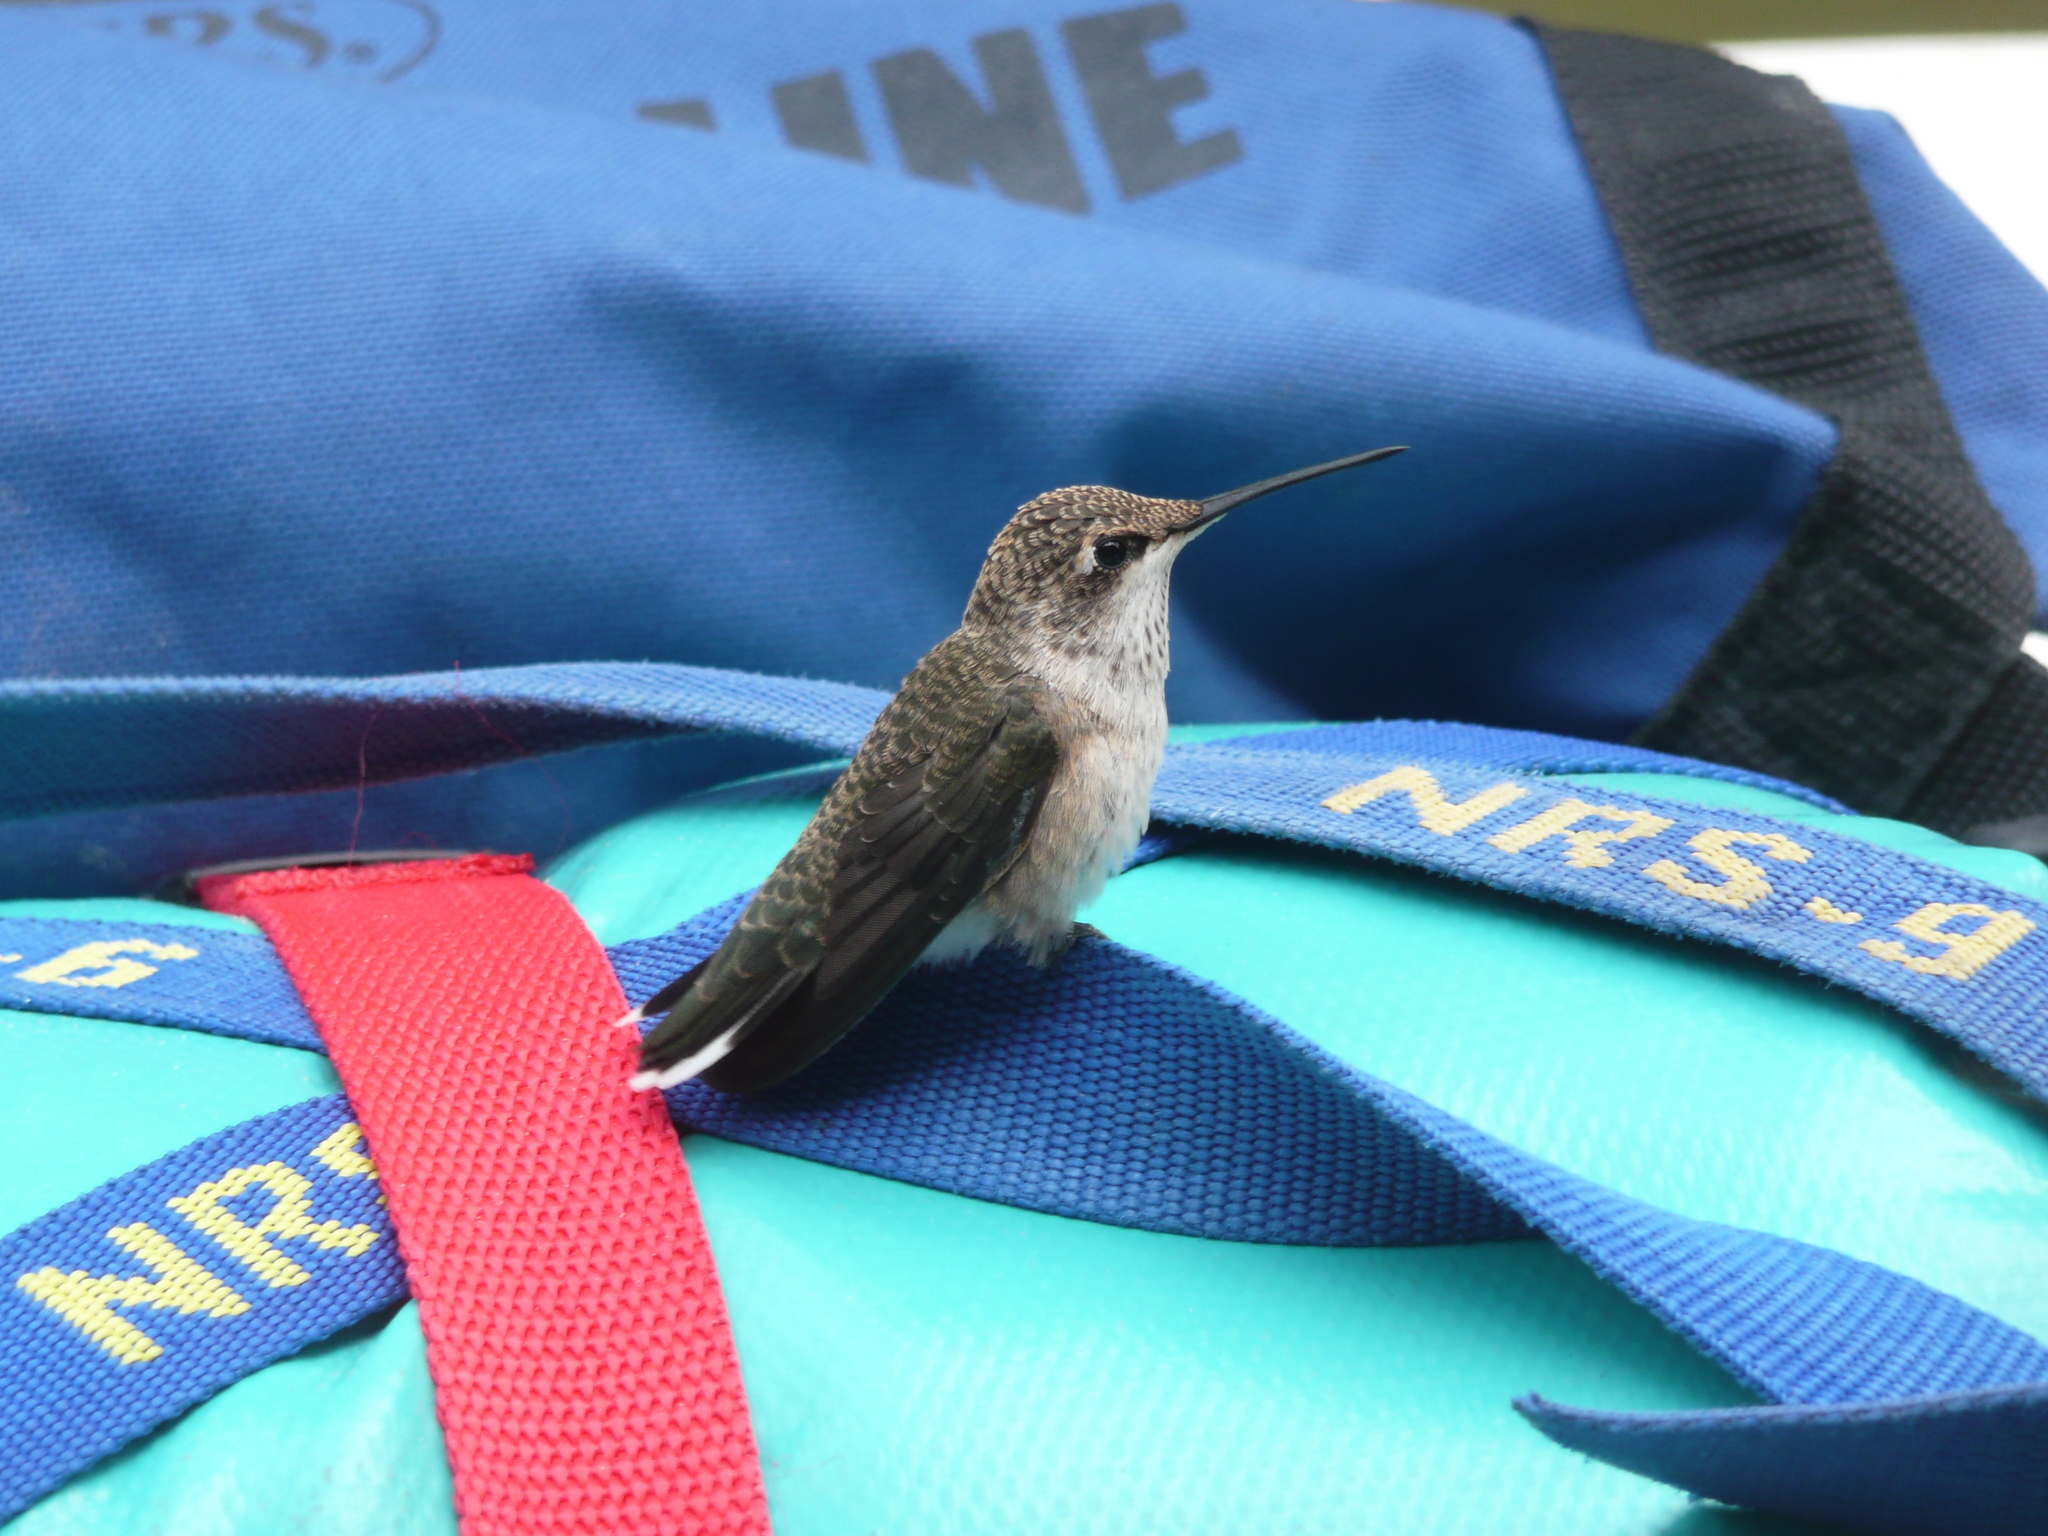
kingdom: Animalia
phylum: Chordata
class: Aves
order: Apodiformes
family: Trochilidae
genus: Archilochus
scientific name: Archilochus alexandri
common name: Black-chinned hummingbird
